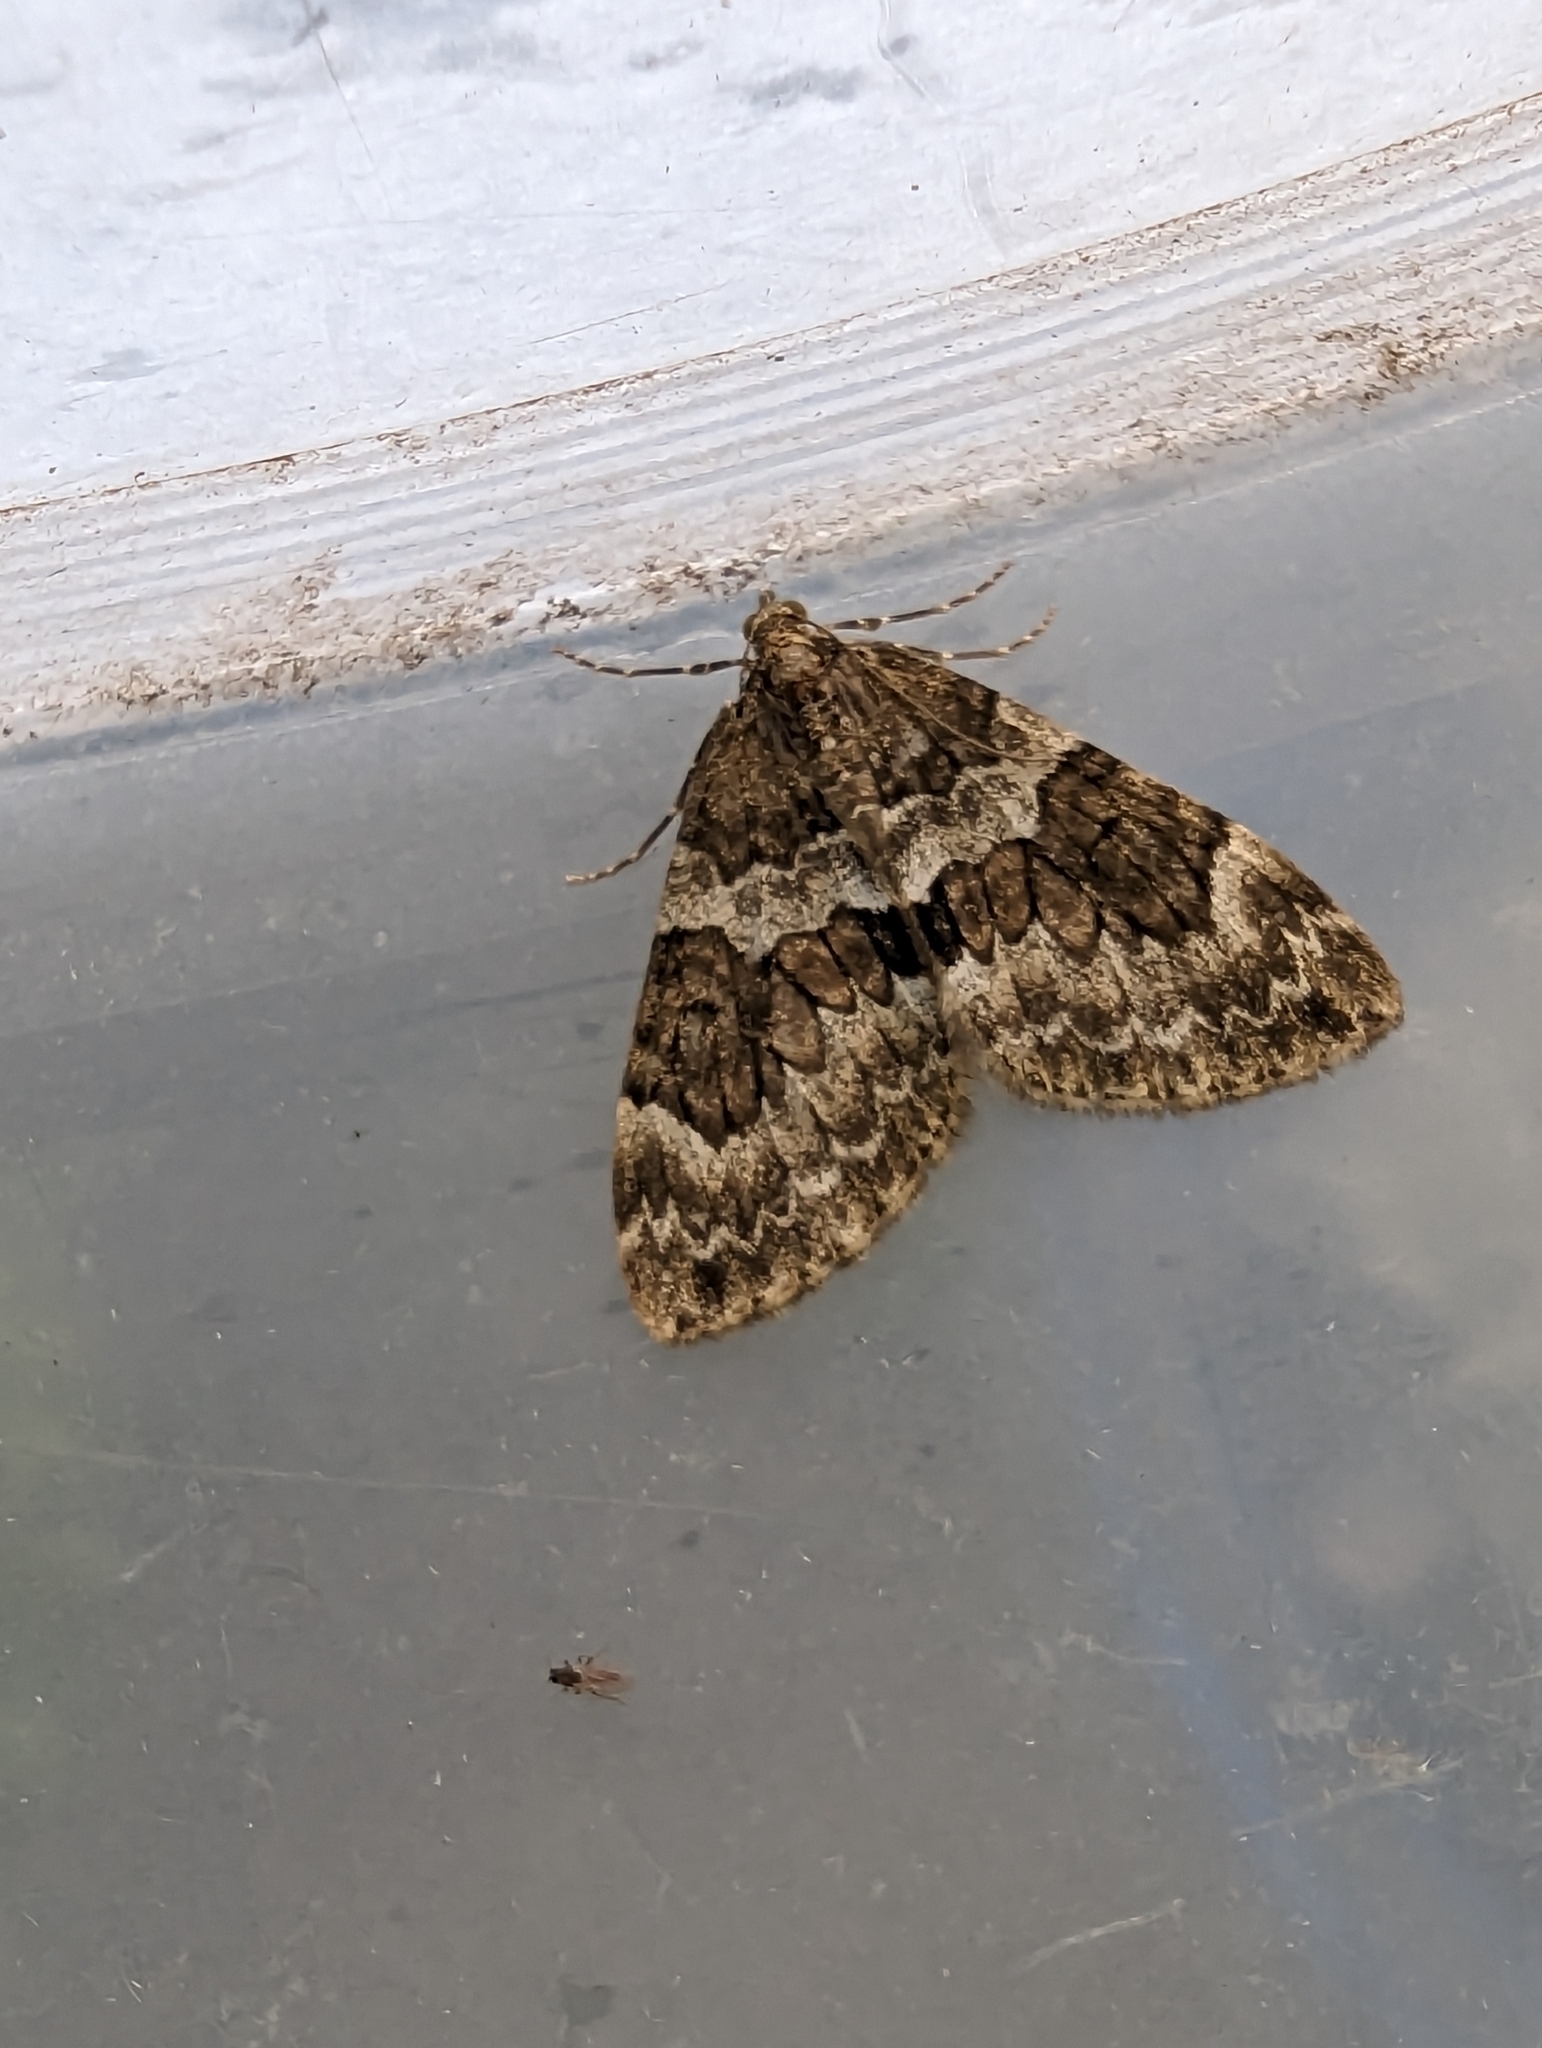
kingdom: Animalia
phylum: Arthropoda
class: Insecta
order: Lepidoptera
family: Geometridae
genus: Thera
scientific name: Thera britannica
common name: Spruce carpet
